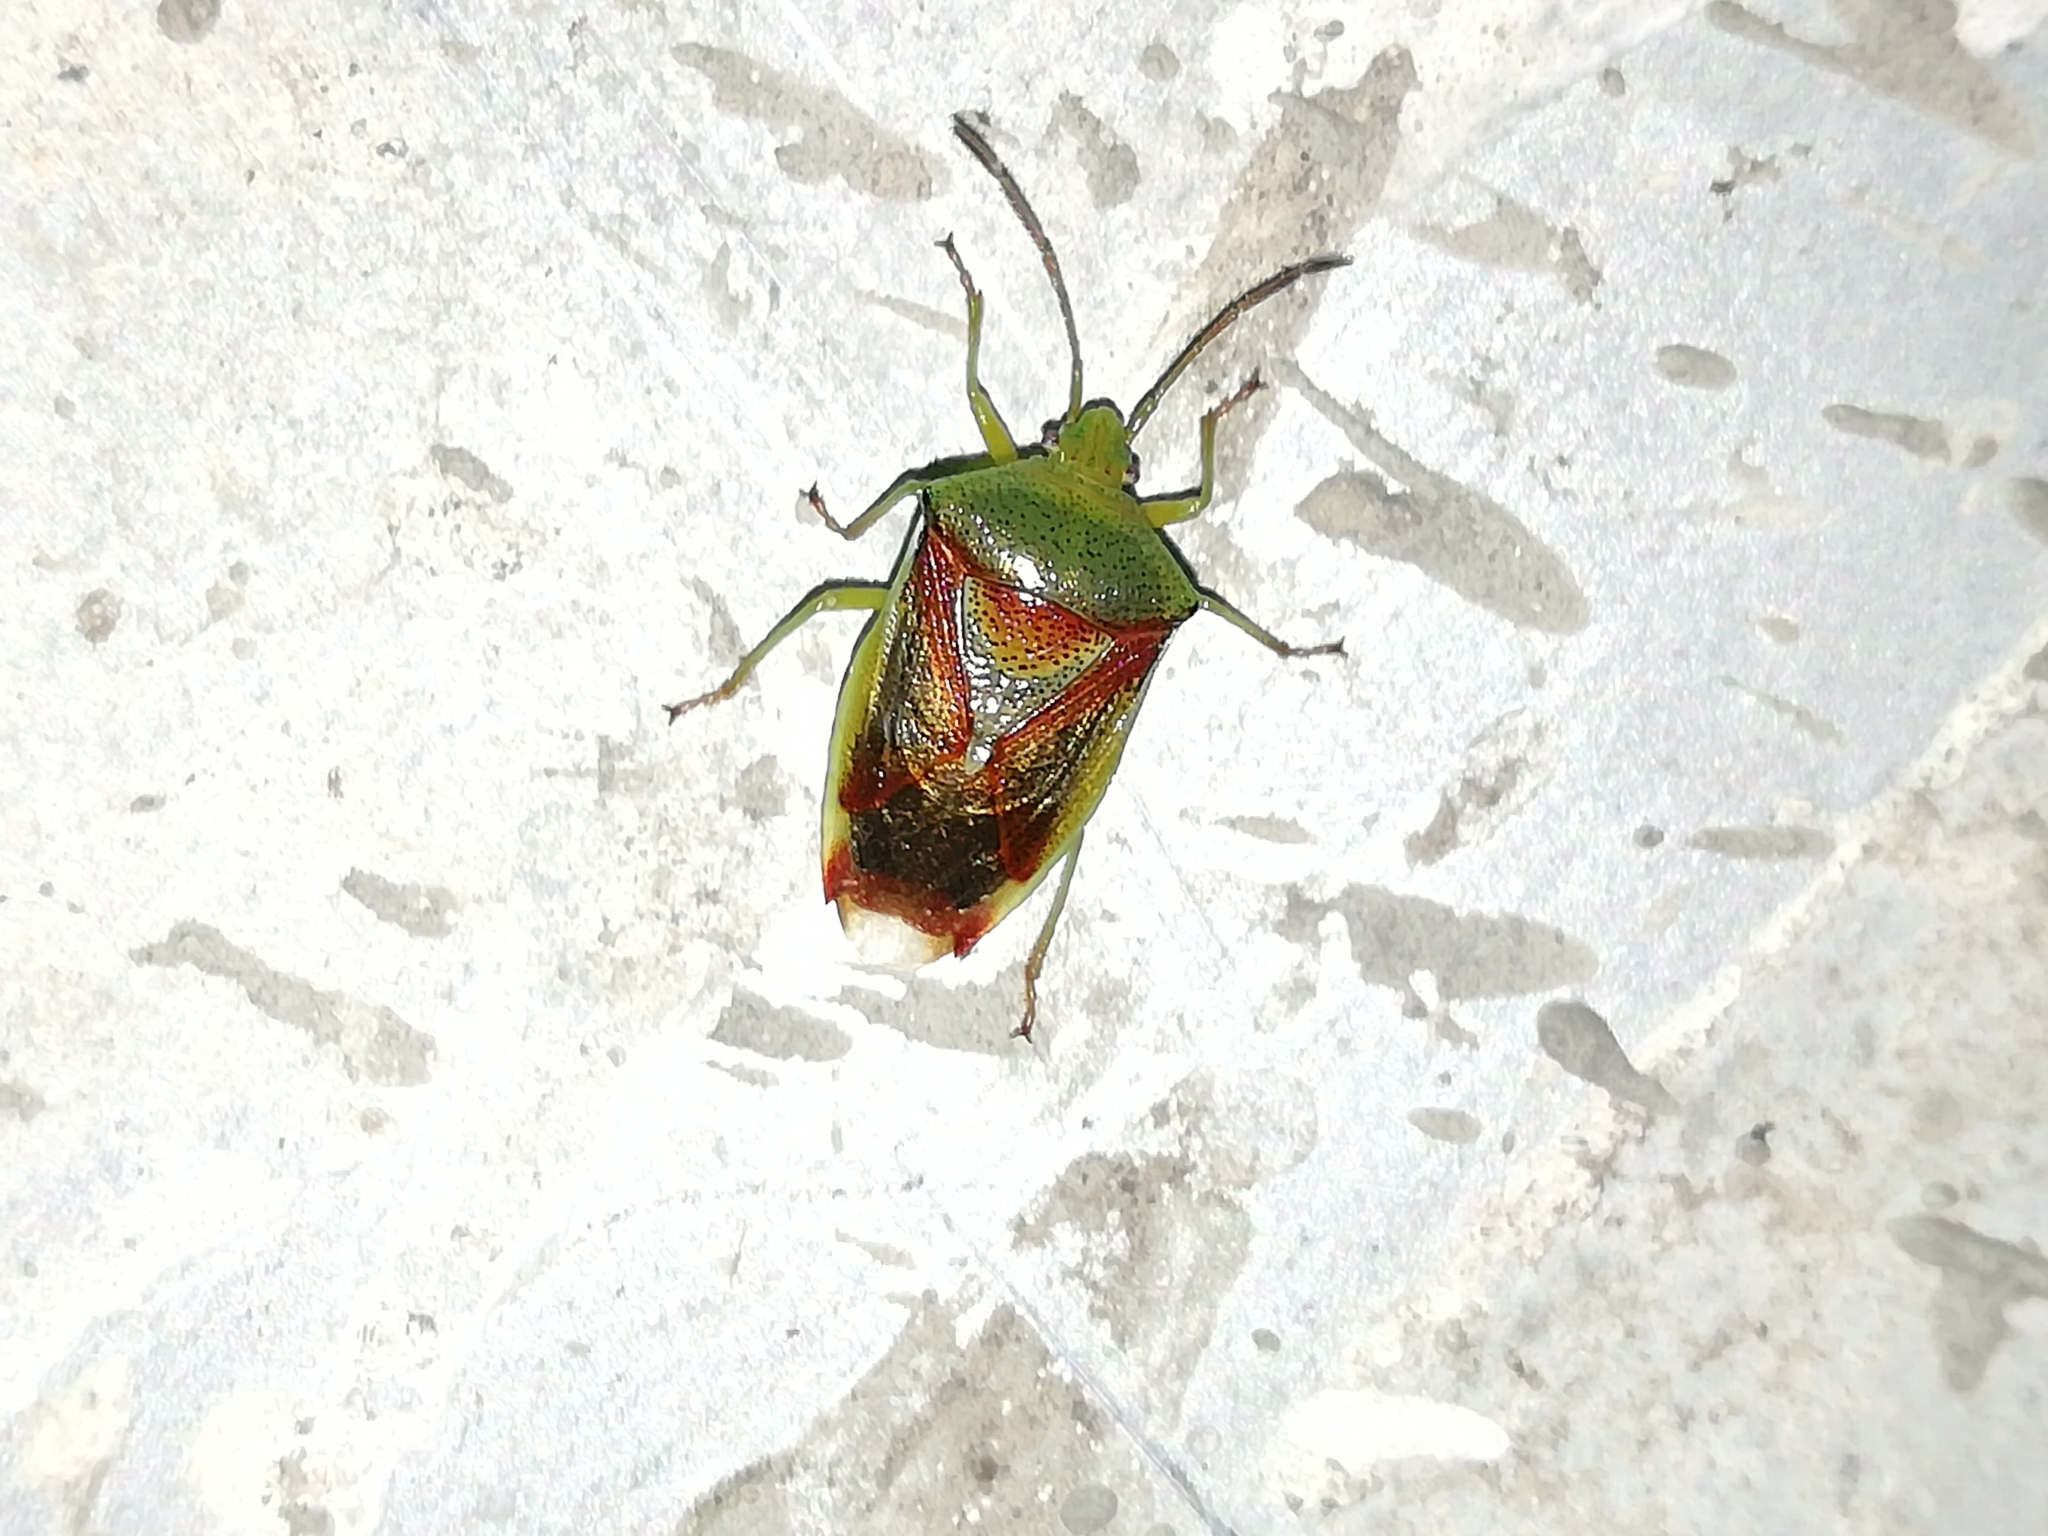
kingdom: Animalia
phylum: Arthropoda
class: Insecta
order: Hemiptera
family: Acanthosomatidae
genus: Elasmostethus
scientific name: Elasmostethus interstinctus
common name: Birch shieldbug
